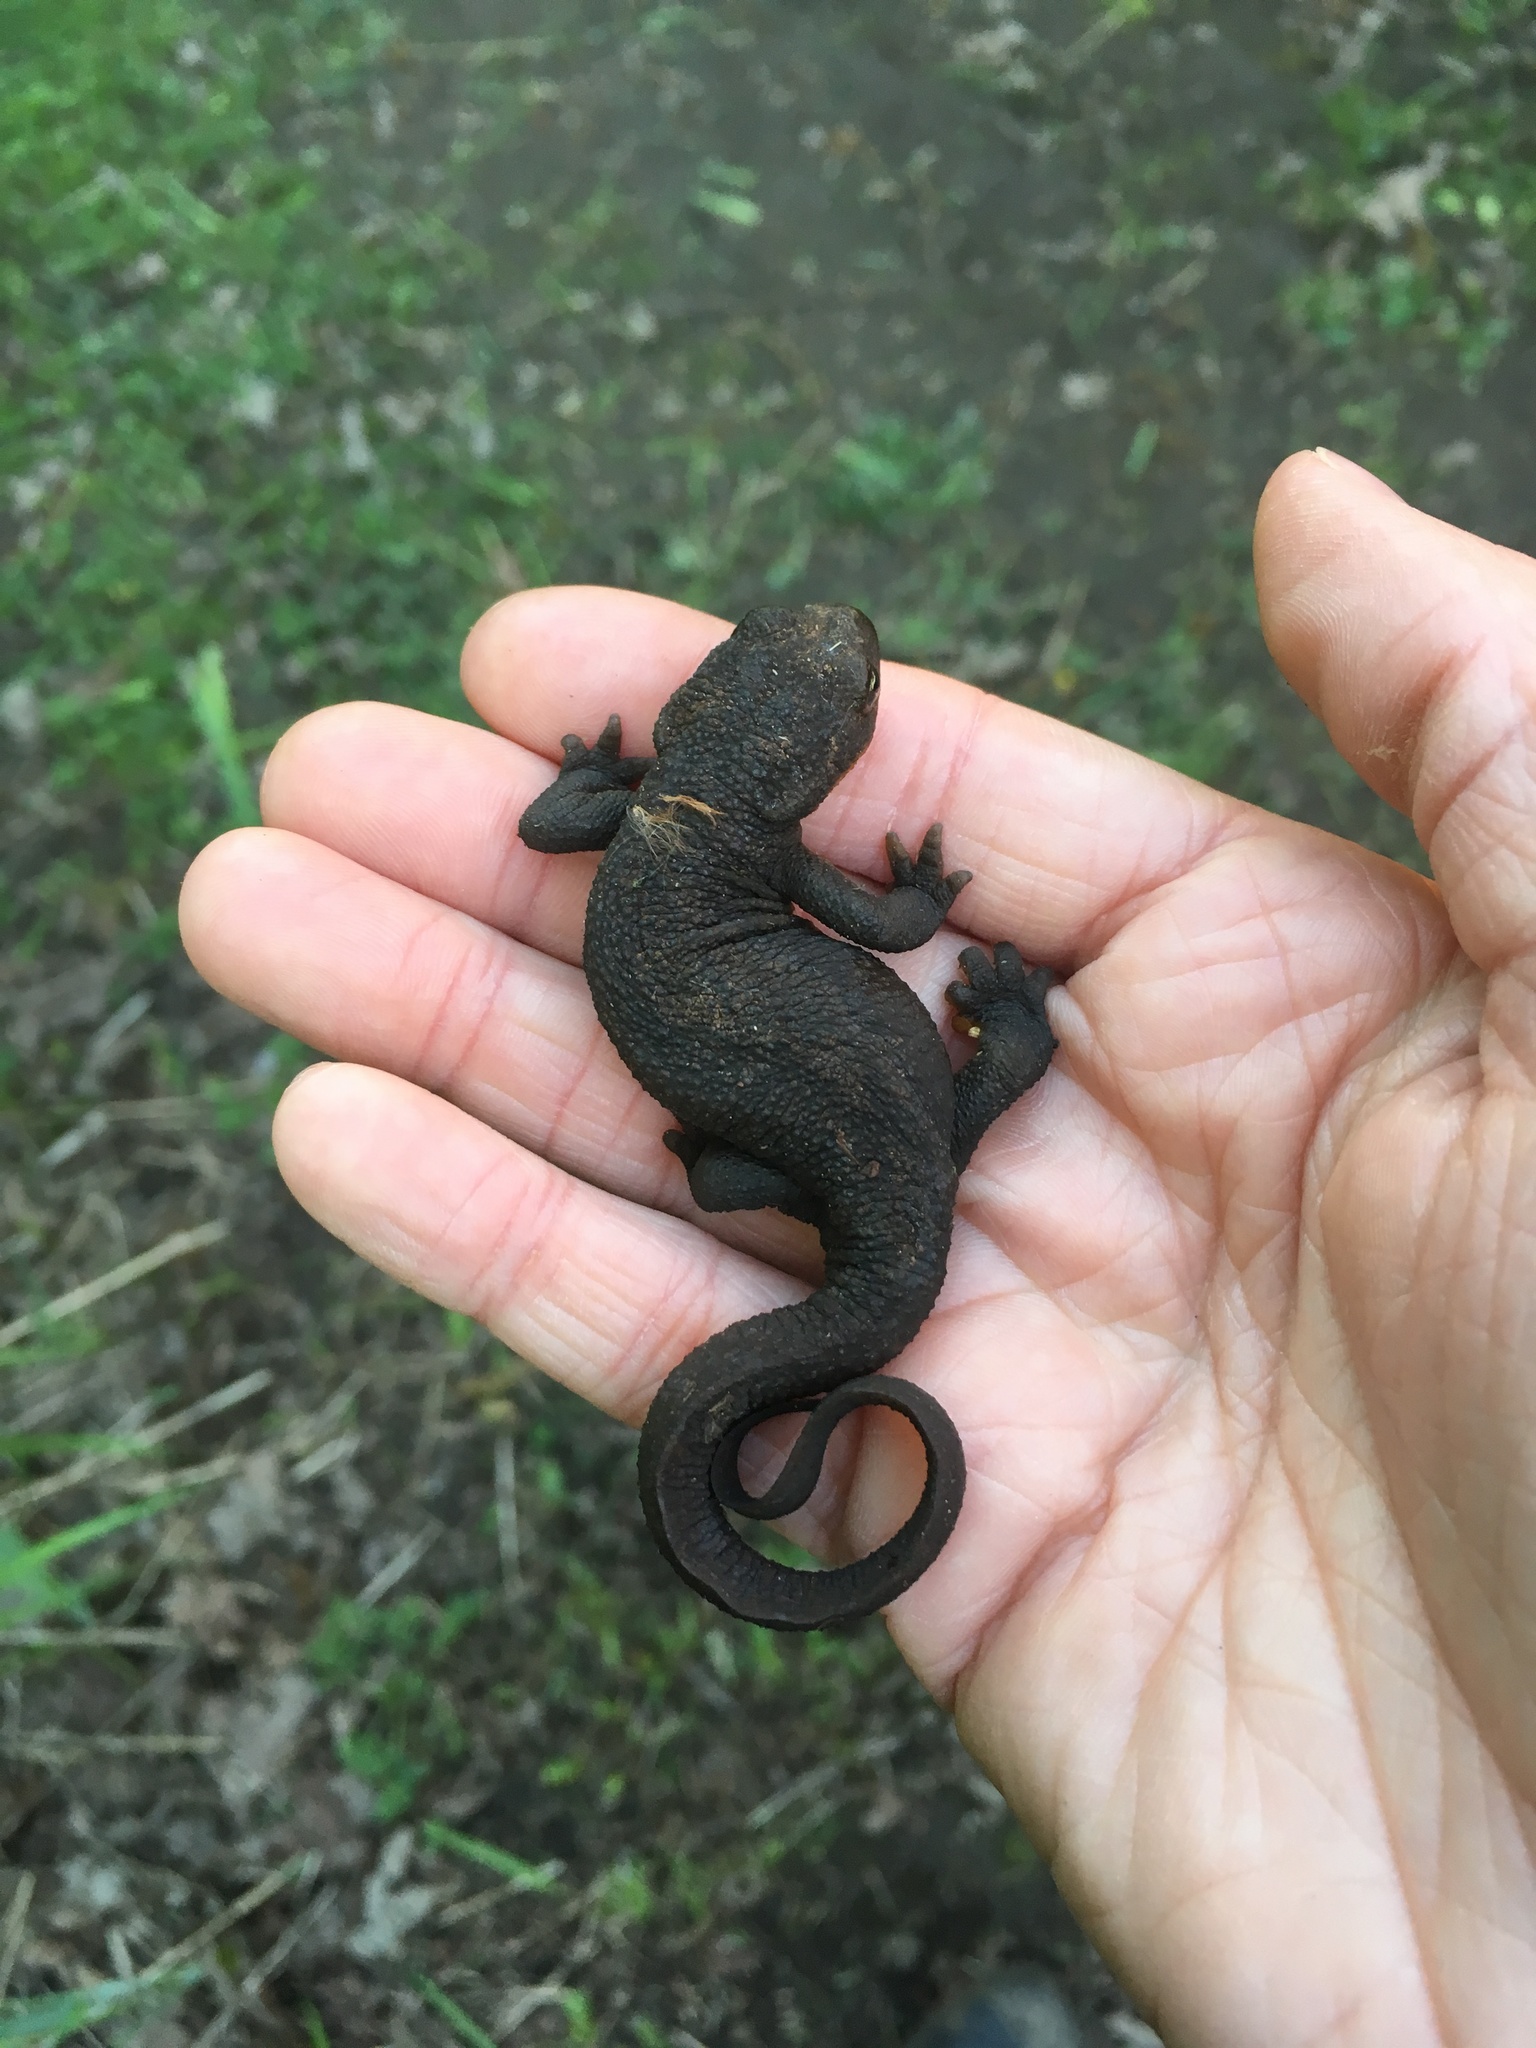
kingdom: Animalia
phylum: Chordata
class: Amphibia
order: Caudata
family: Salamandridae
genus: Taricha
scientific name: Taricha granulosa
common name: Roughskin newt
